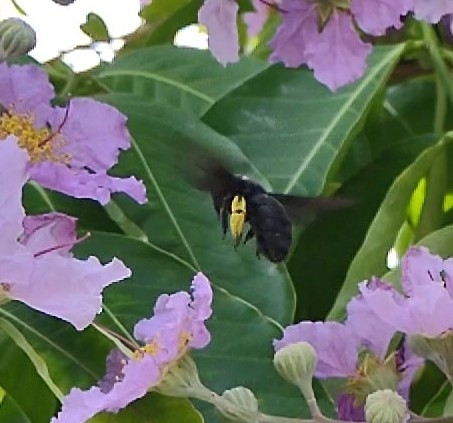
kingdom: Animalia
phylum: Arthropoda
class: Insecta
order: Hymenoptera
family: Apidae
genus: Xylocopa
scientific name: Xylocopa
